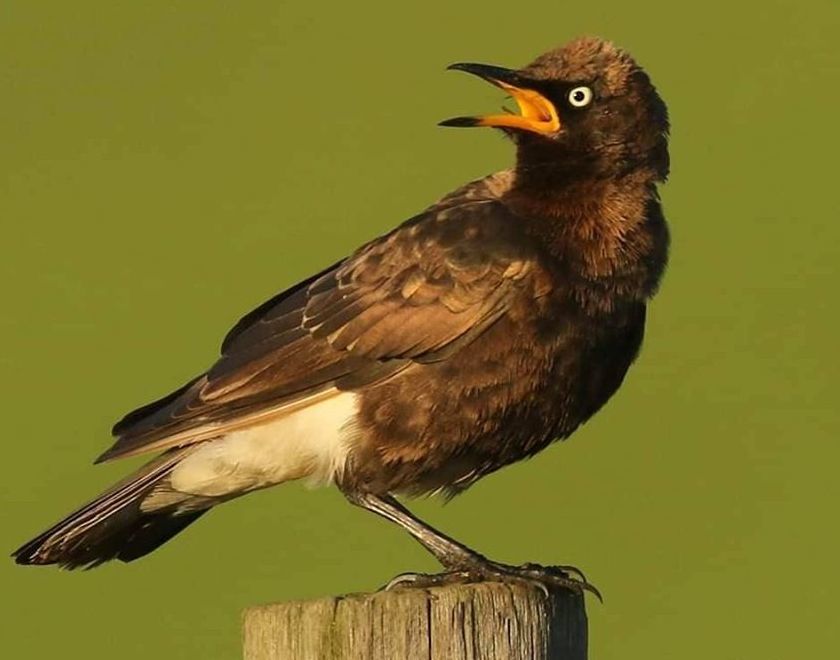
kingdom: Animalia
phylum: Chordata
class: Aves
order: Passeriformes
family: Sturnidae
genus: Lamprotornis
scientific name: Lamprotornis bicolor
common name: Pied starling
